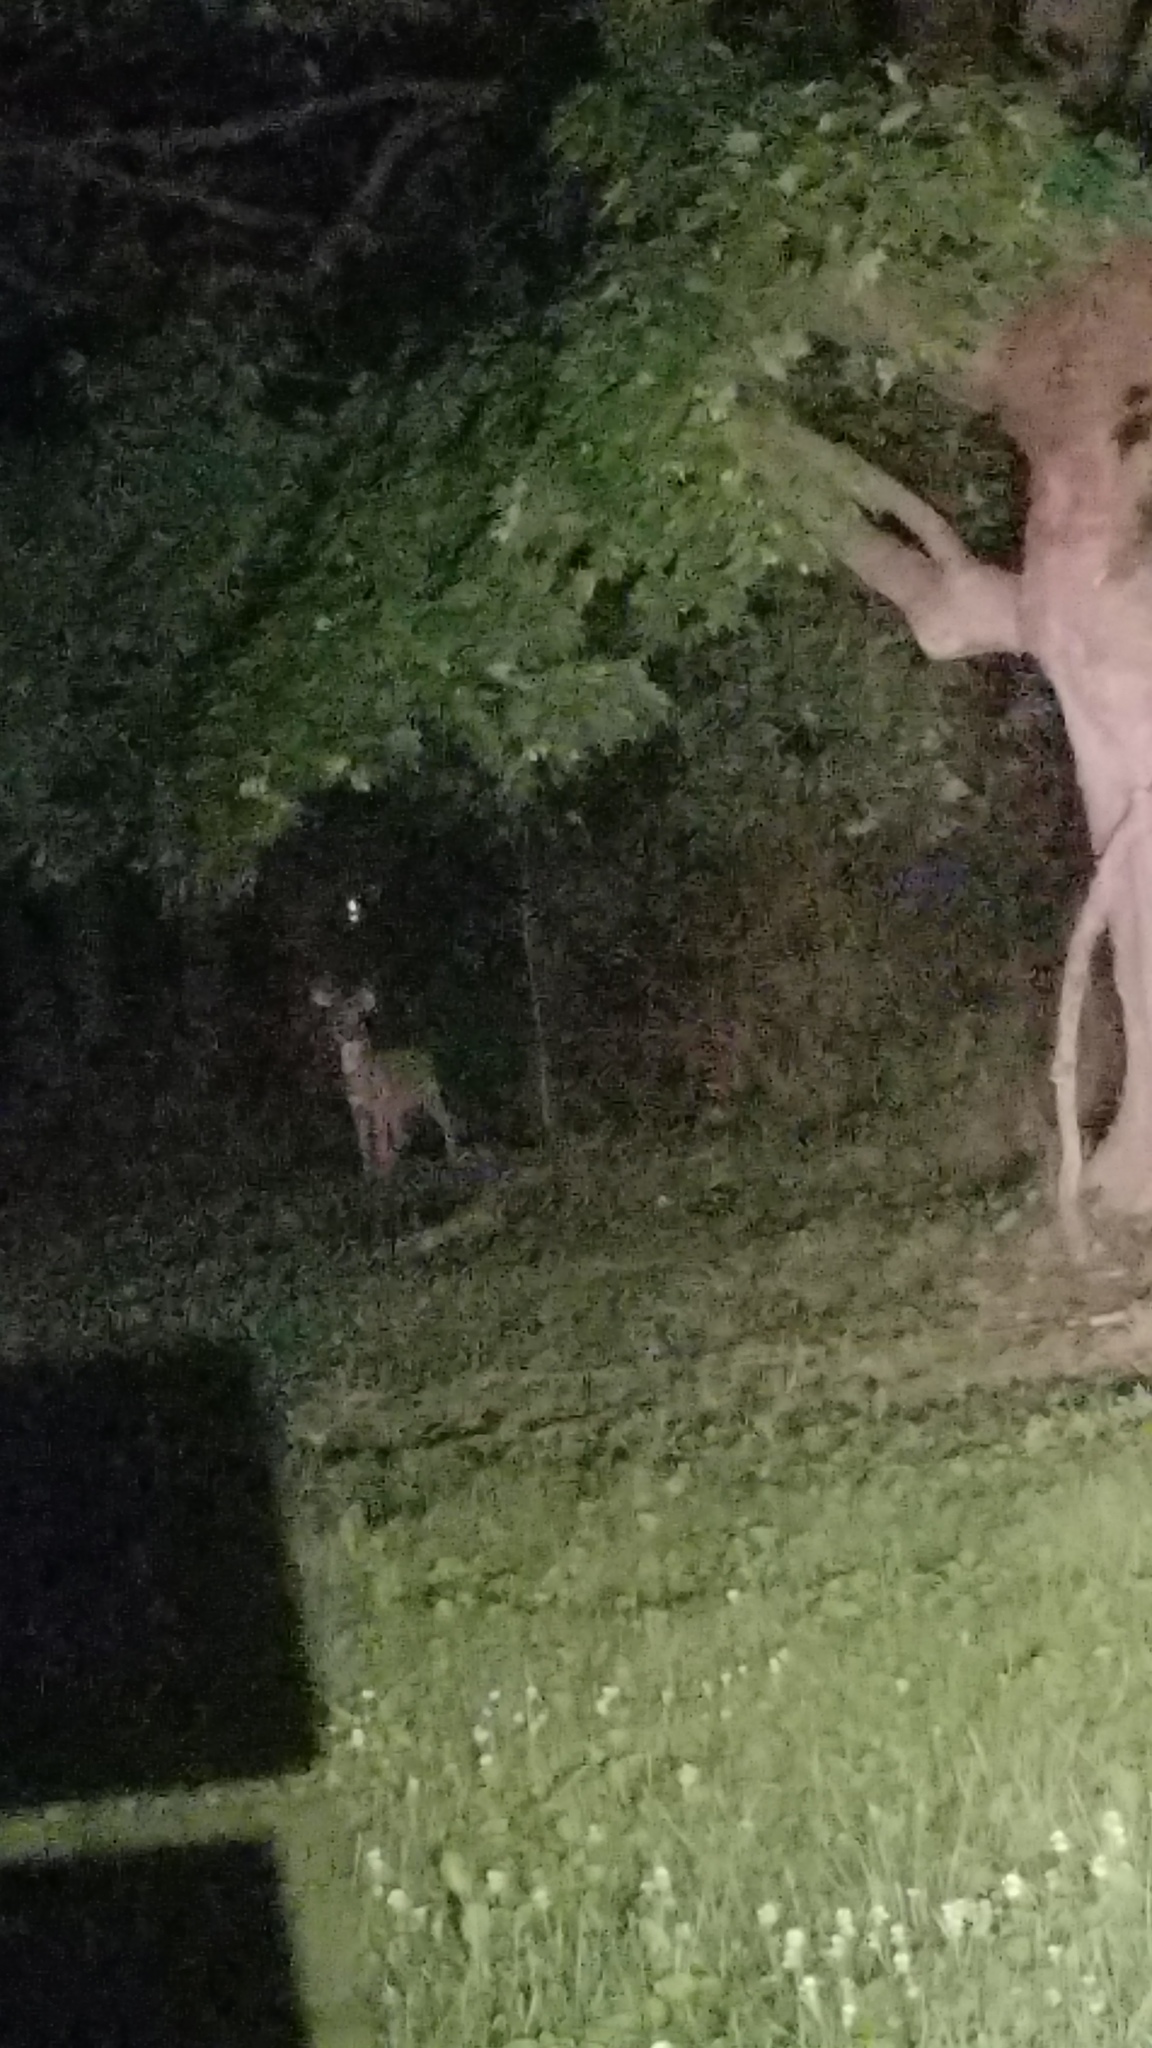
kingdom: Animalia
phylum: Chordata
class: Mammalia
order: Artiodactyla
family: Cervidae
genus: Odocoileus
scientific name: Odocoileus virginianus
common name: White-tailed deer
